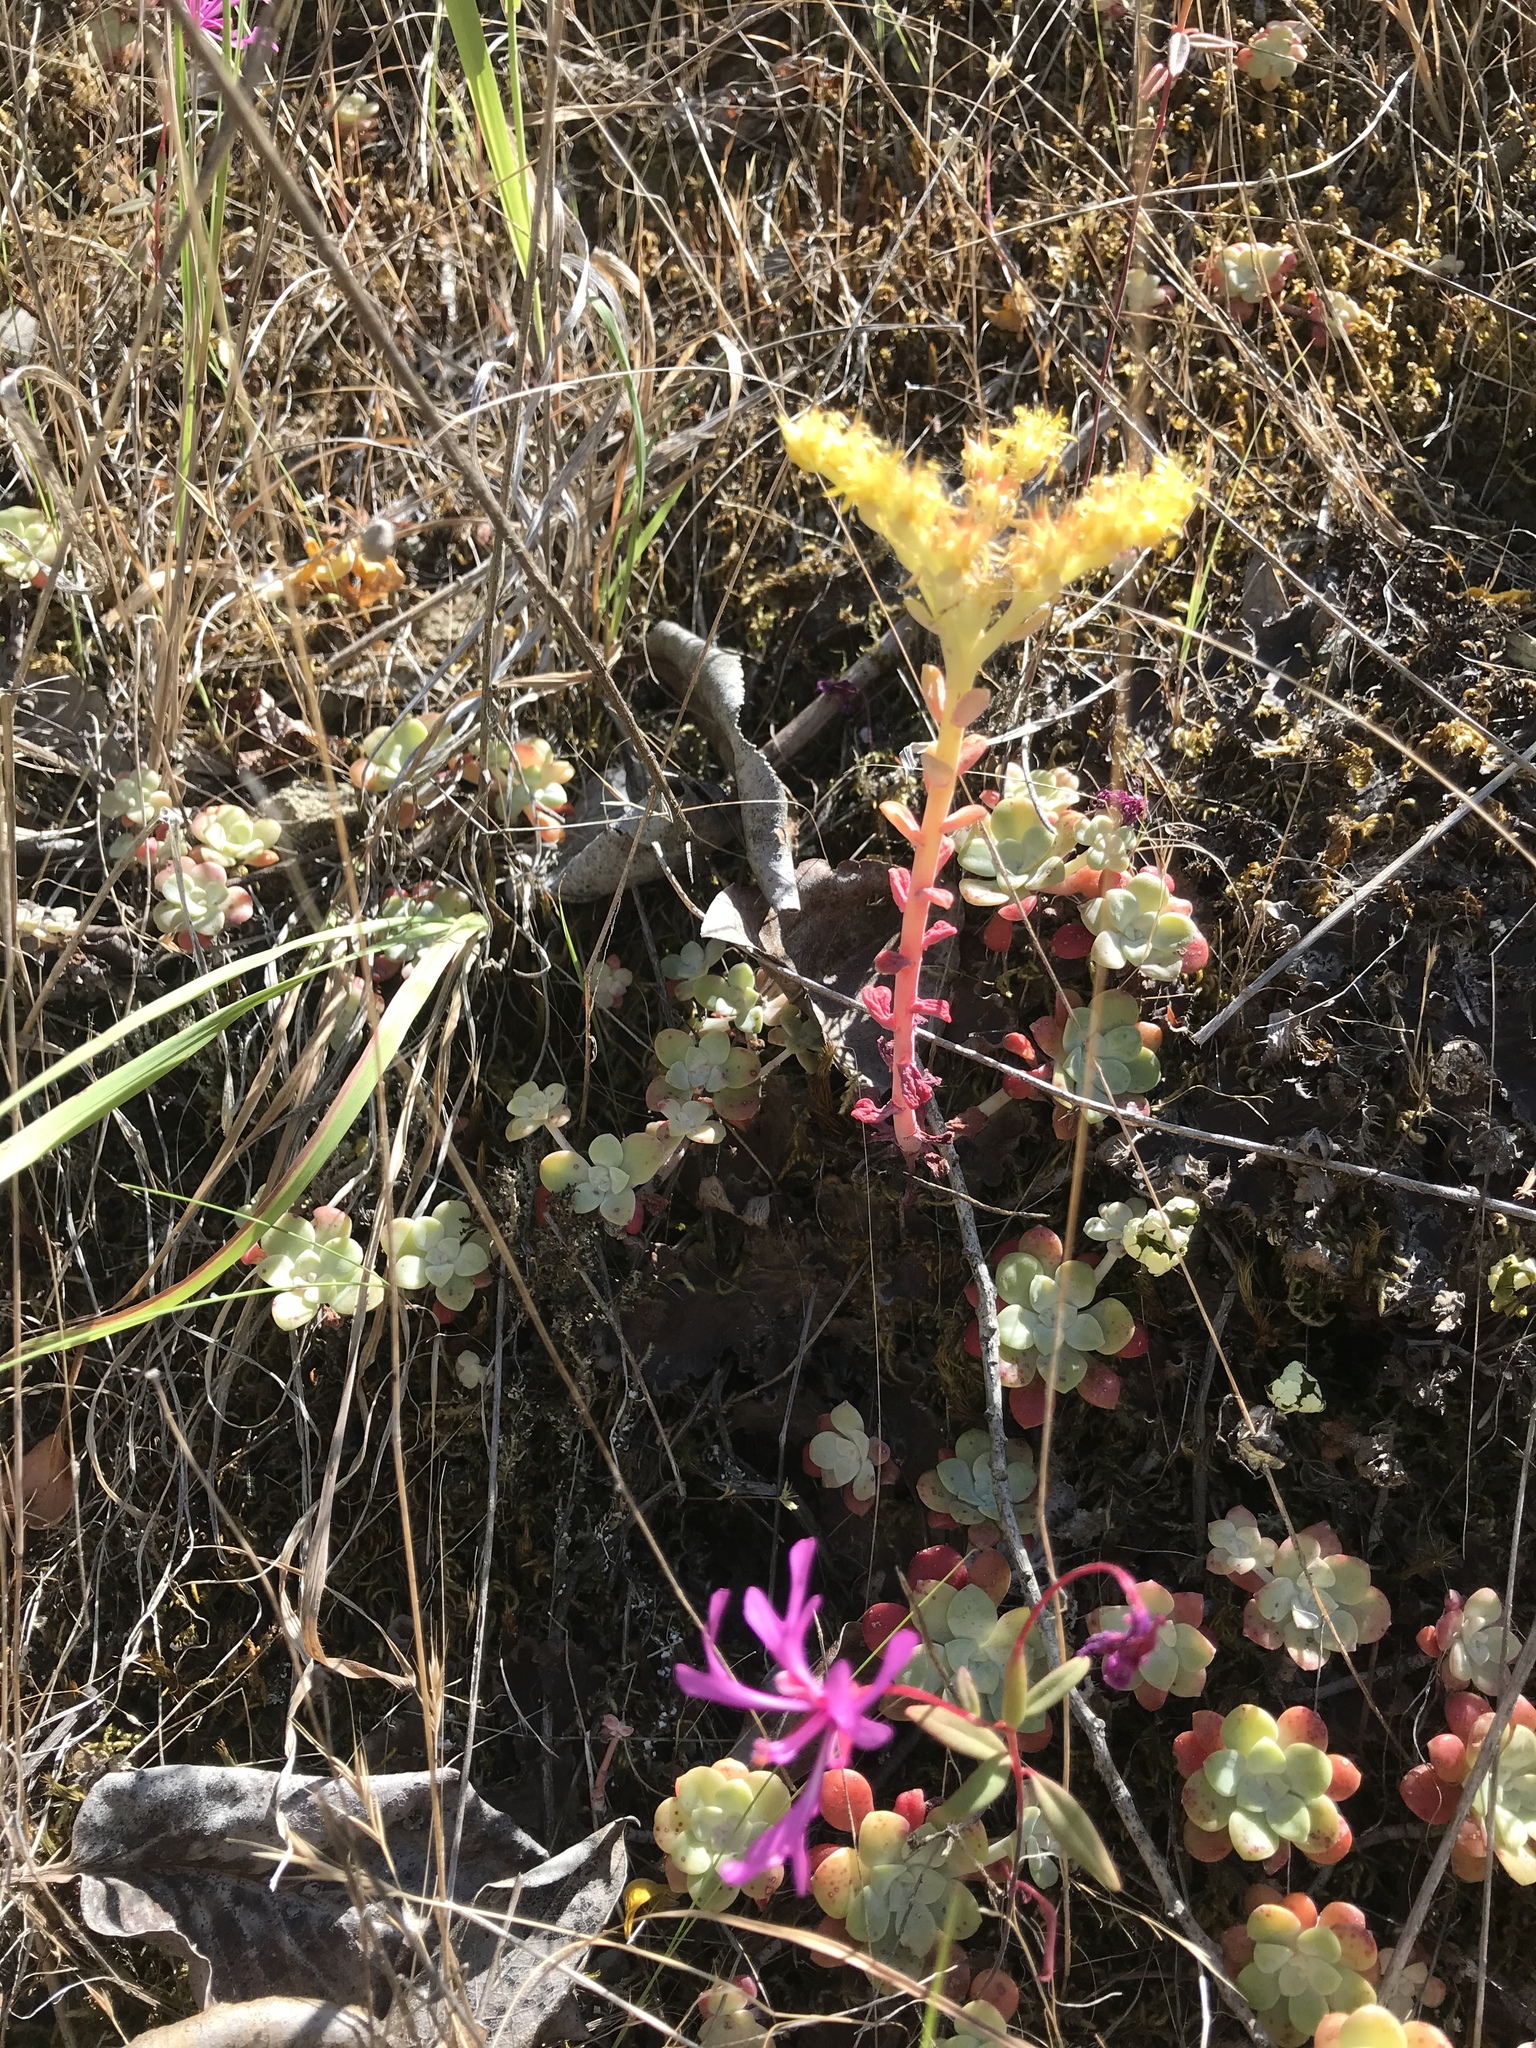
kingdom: Plantae
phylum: Tracheophyta
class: Magnoliopsida
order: Saxifragales
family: Crassulaceae
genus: Sedum
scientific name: Sedum spathulifolium
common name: Colorado stonecrop
